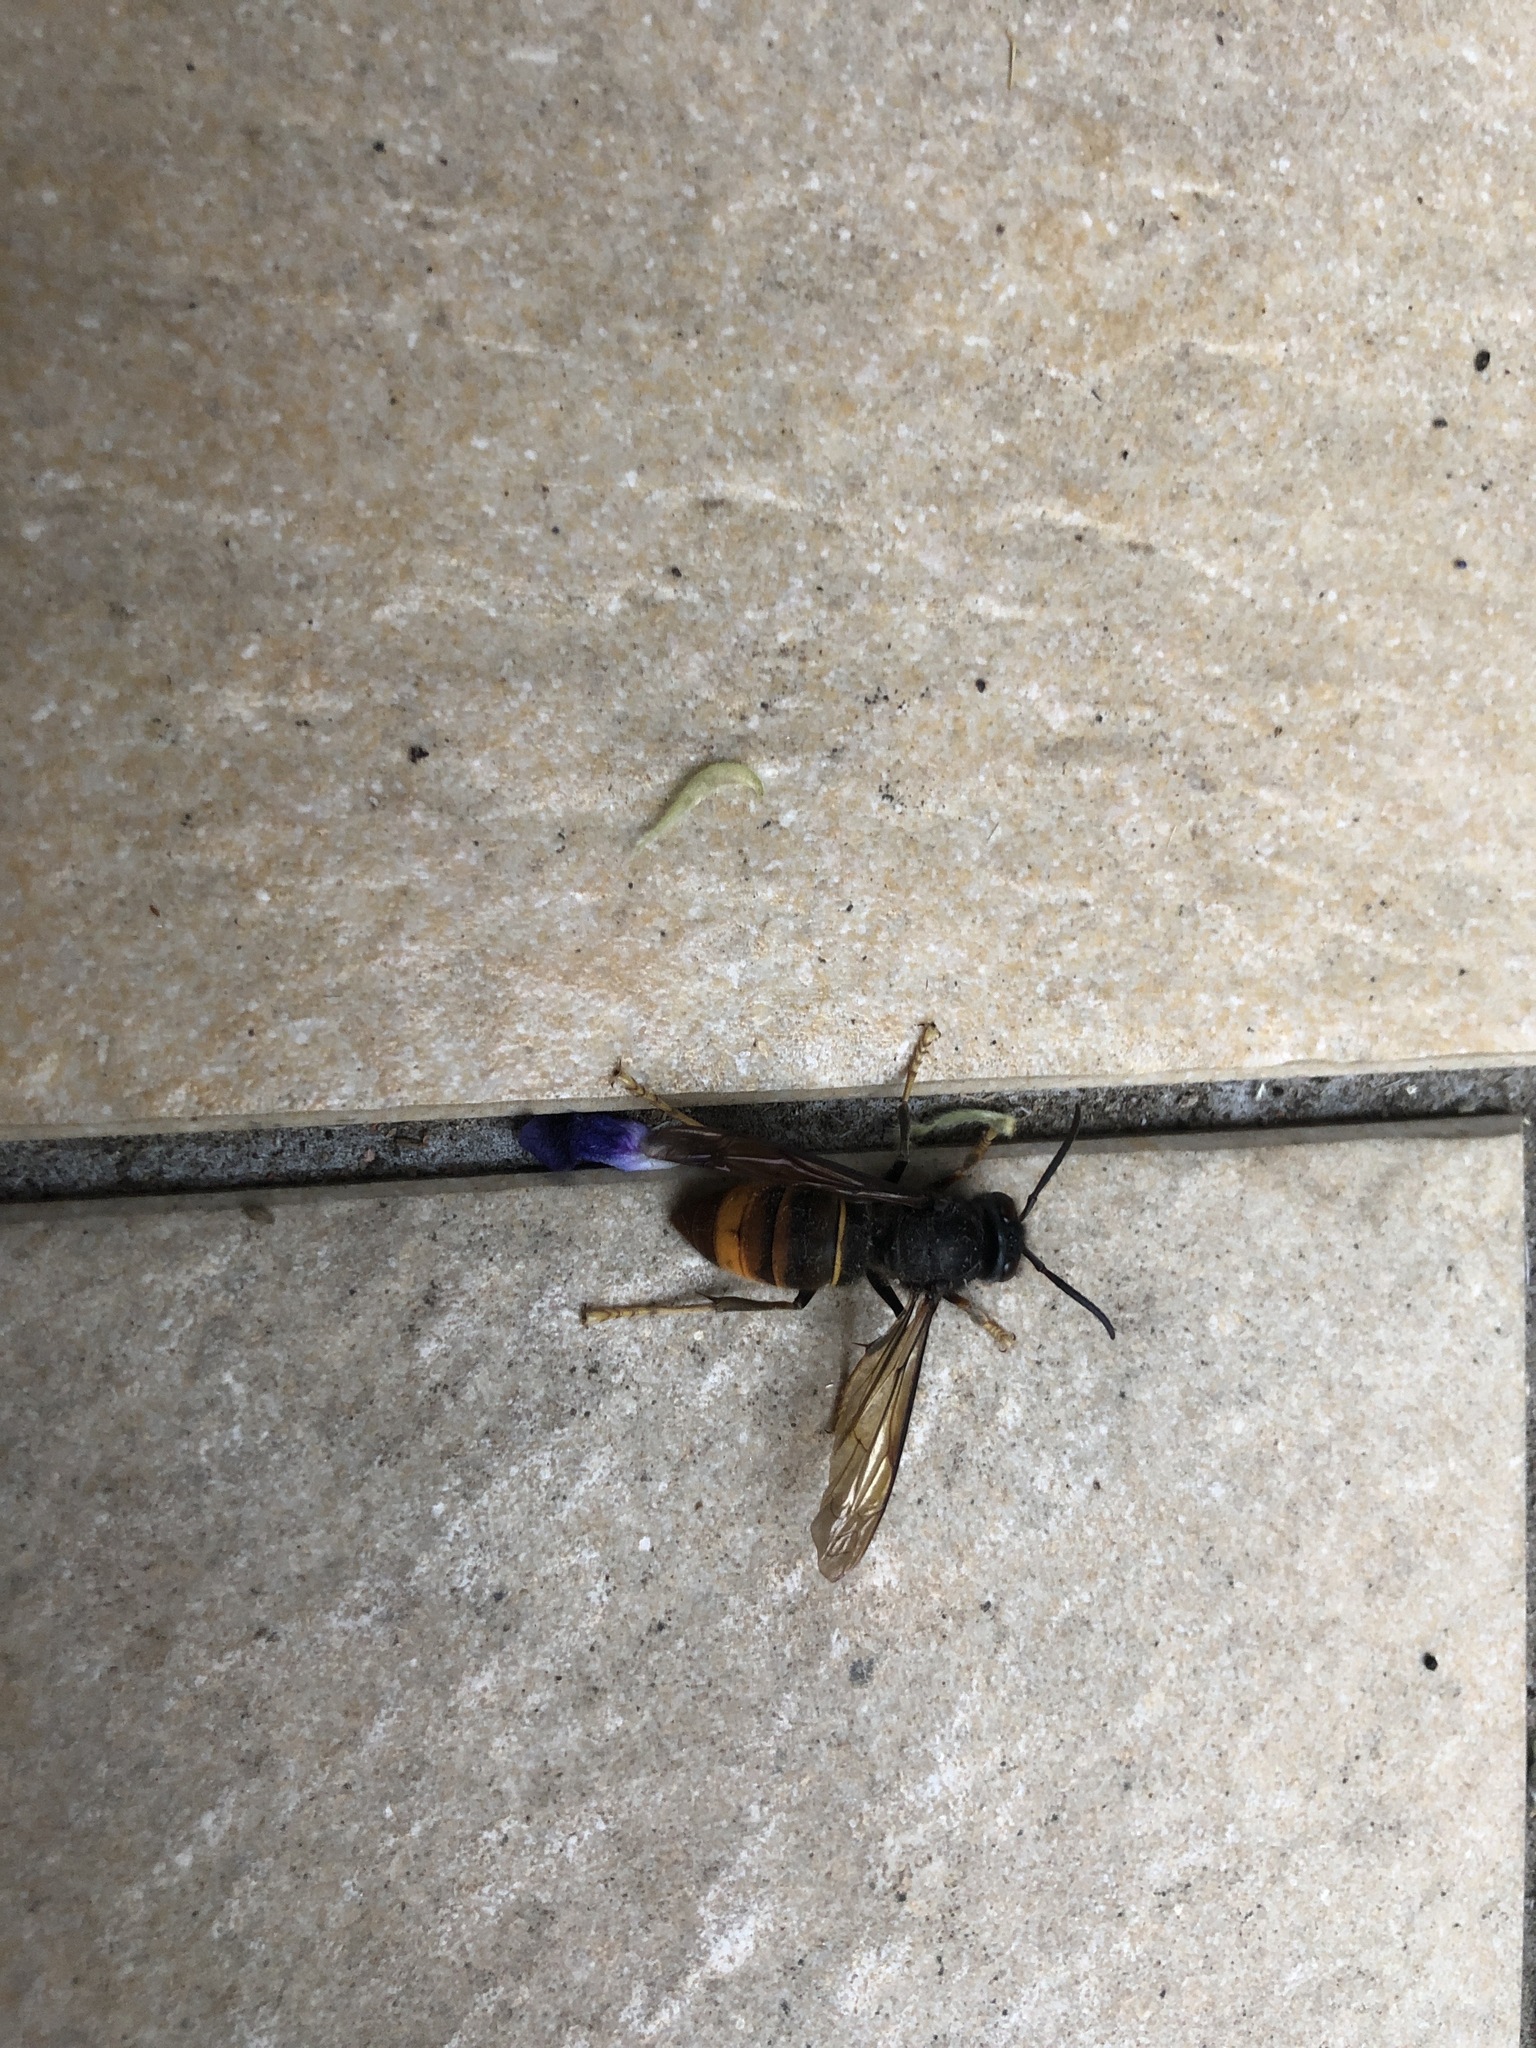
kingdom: Animalia
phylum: Arthropoda
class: Insecta
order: Hymenoptera
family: Vespidae
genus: Vespa
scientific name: Vespa velutina
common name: Asian hornet
